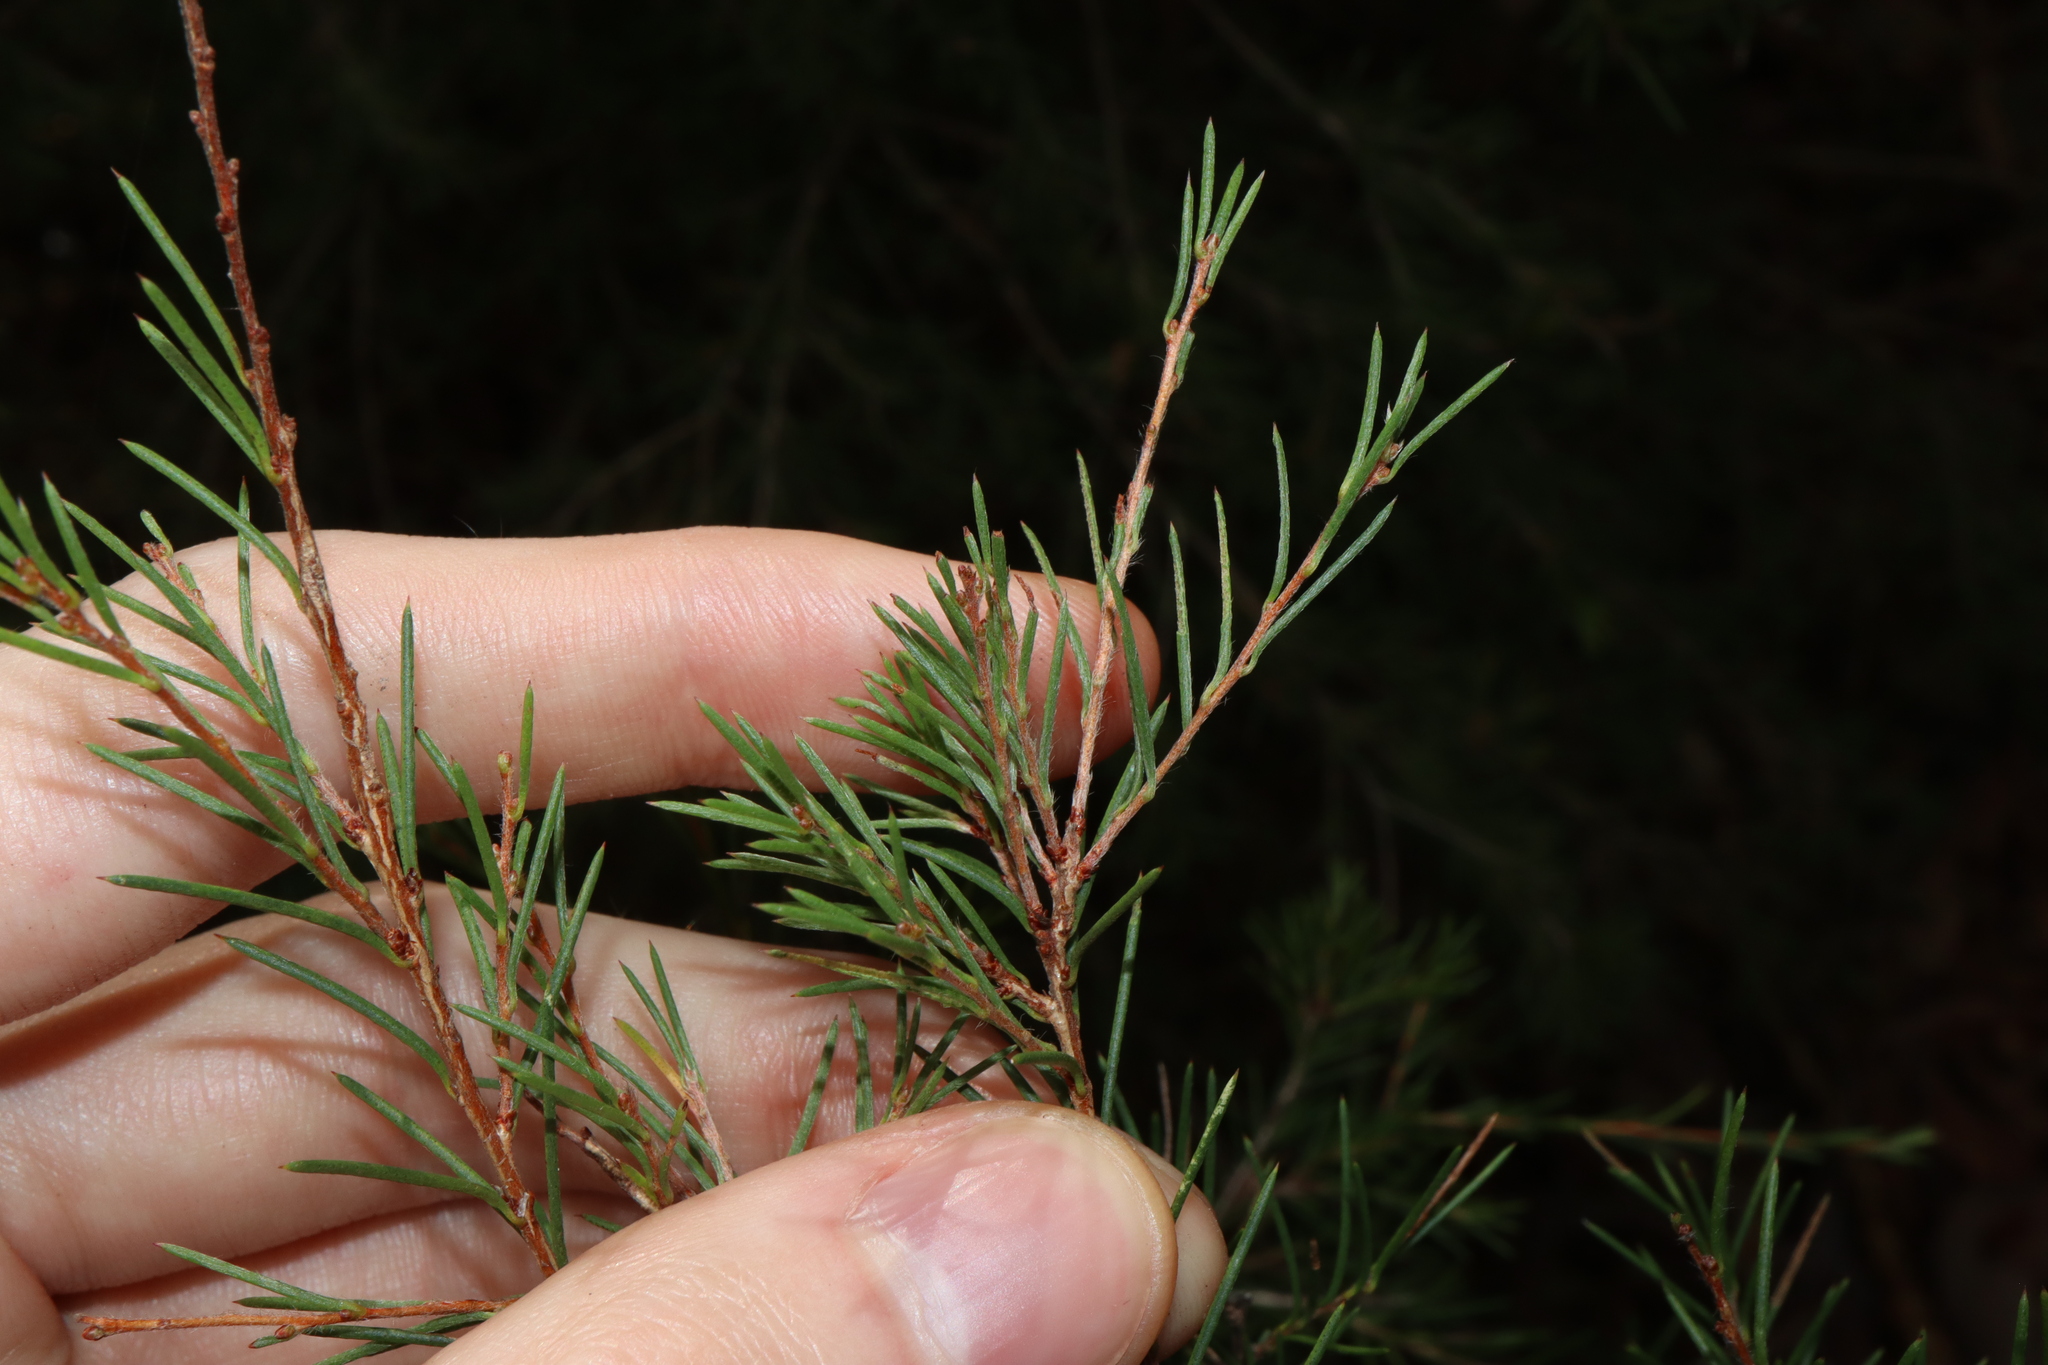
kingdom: Plantae
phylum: Tracheophyta
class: Magnoliopsida
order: Myrtales
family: Myrtaceae
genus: Melaleuca
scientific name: Melaleuca nodosa
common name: Prickly-leaf paperbark
